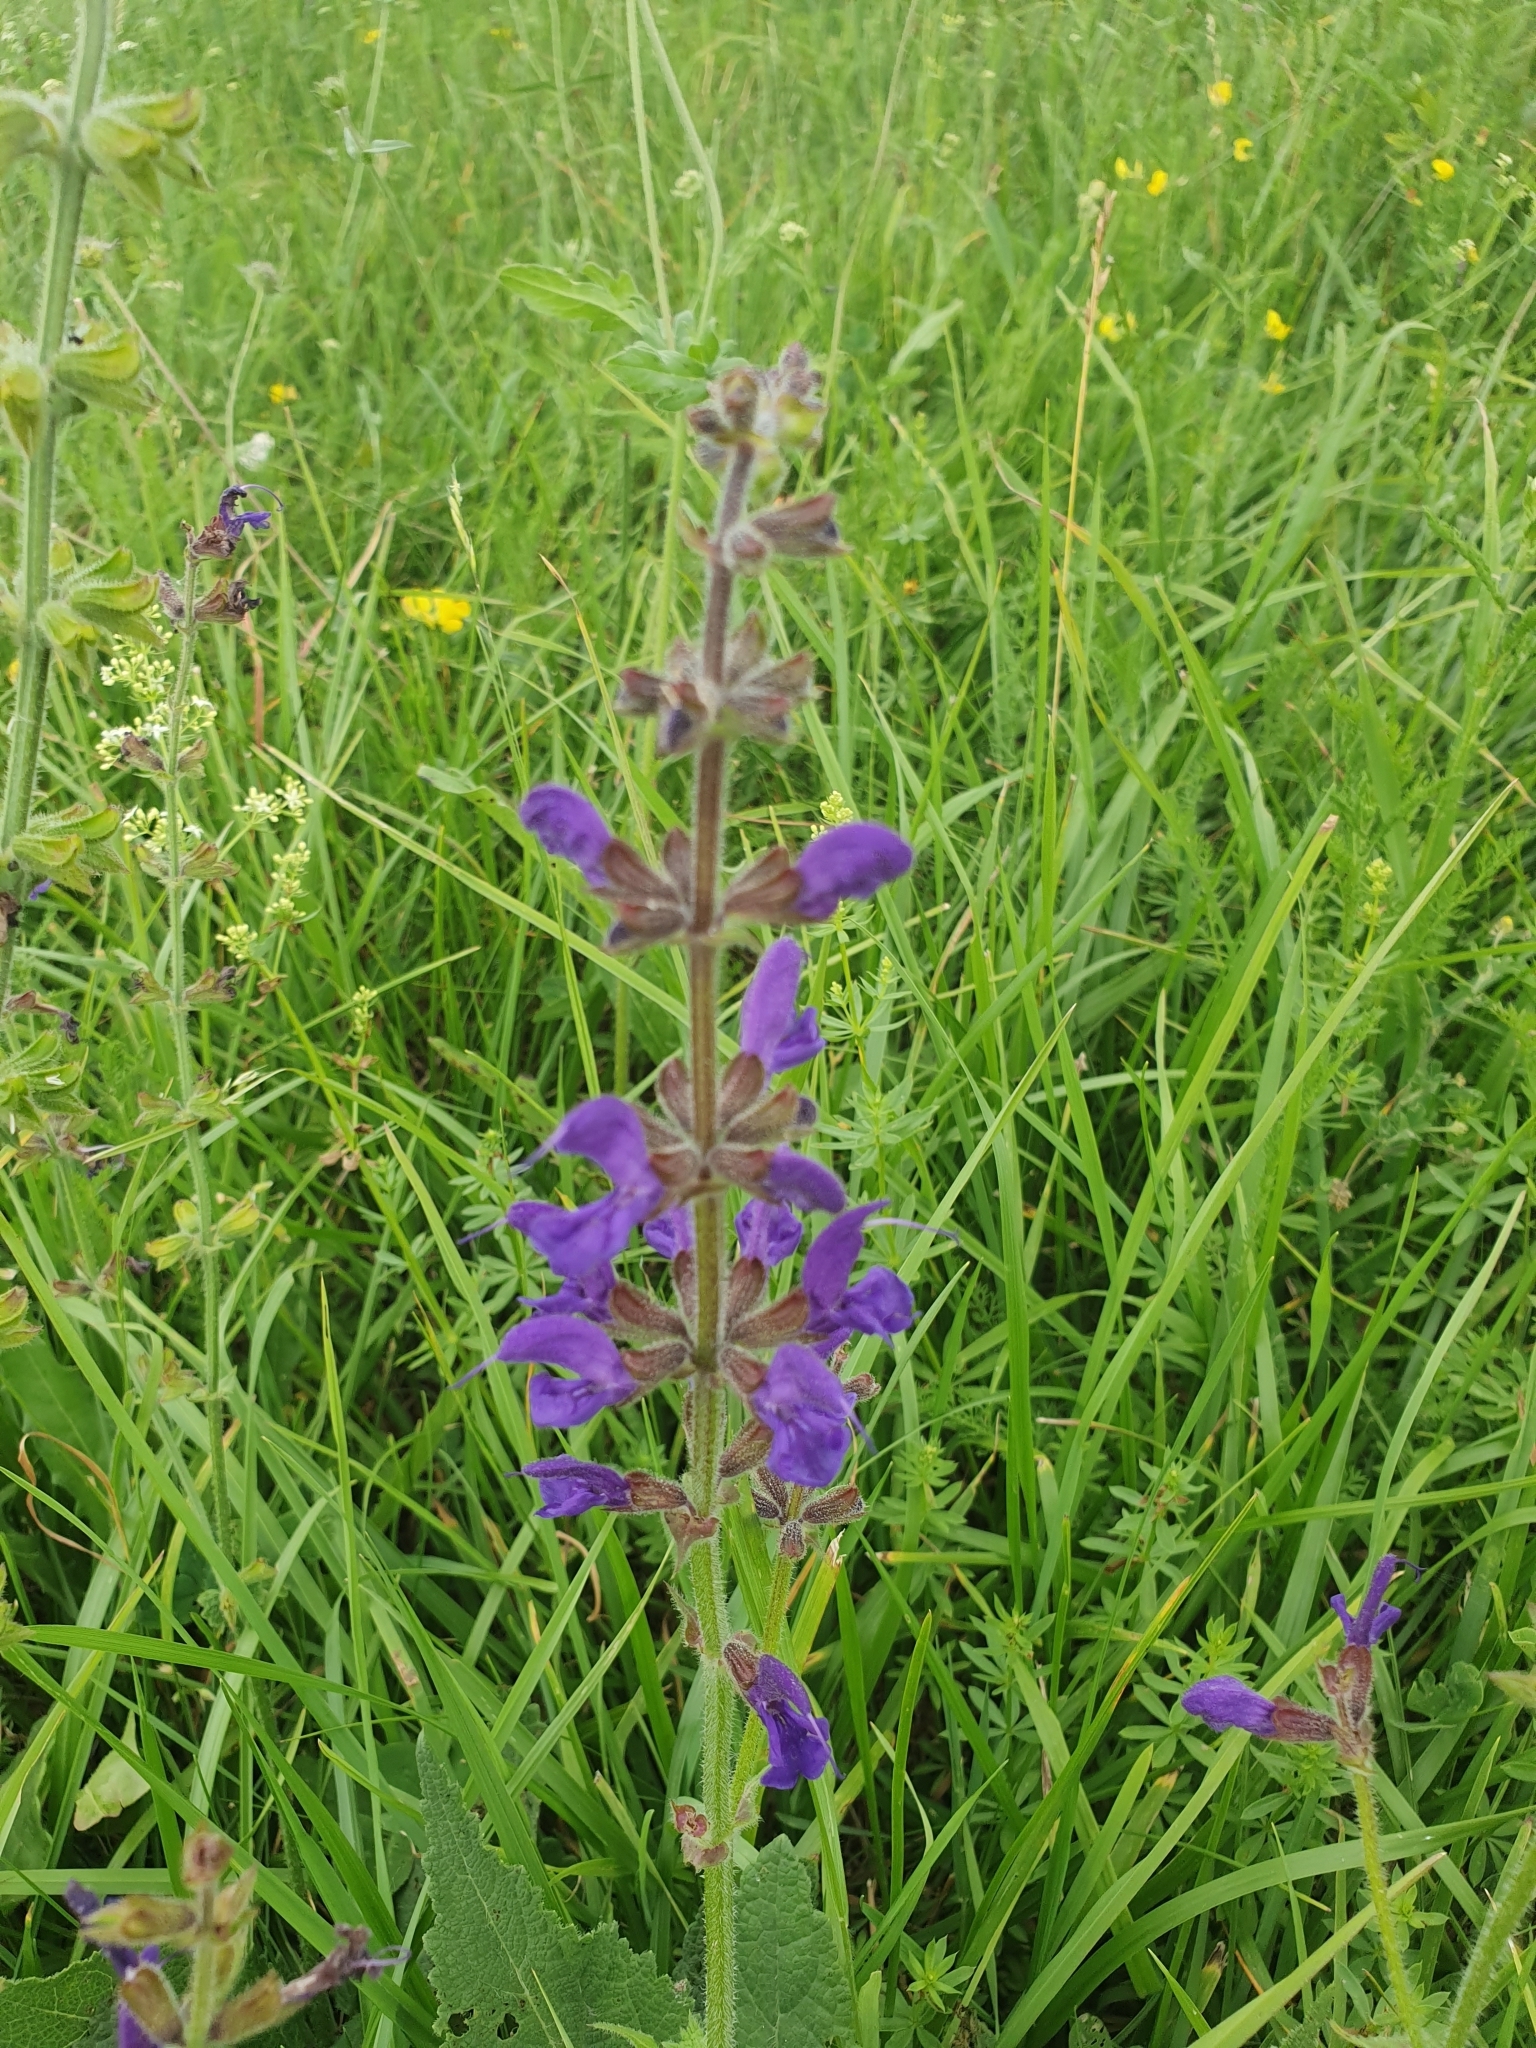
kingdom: Plantae
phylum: Tracheophyta
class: Magnoliopsida
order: Lamiales
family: Lamiaceae
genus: Salvia
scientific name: Salvia pratensis
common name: Meadow sage
